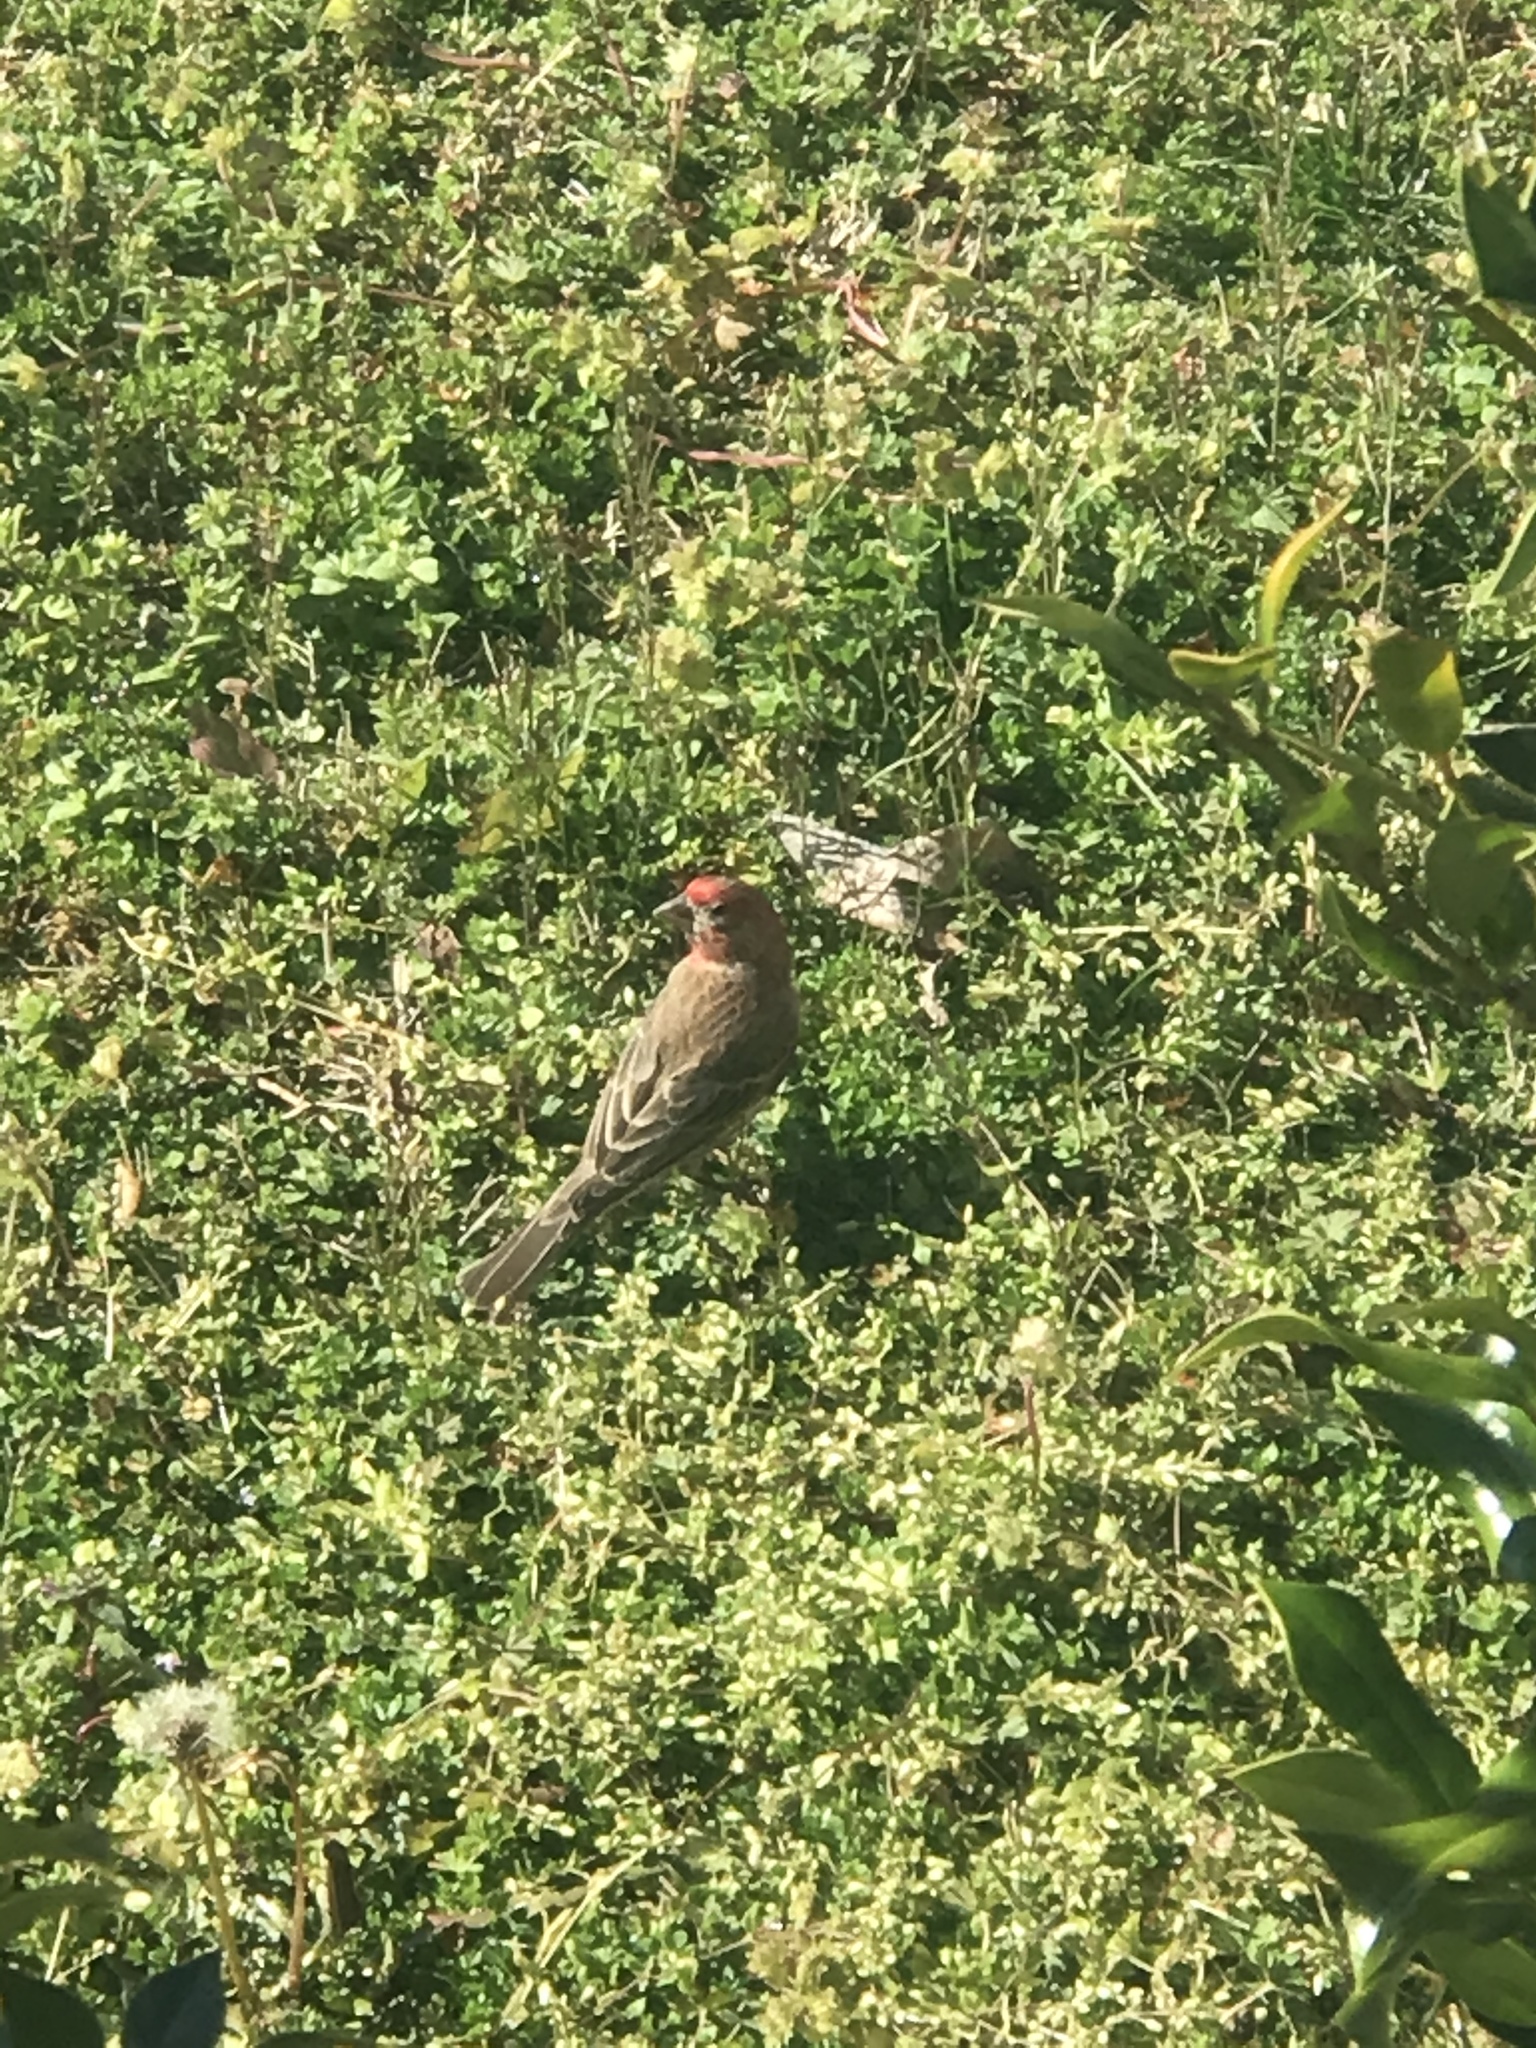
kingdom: Animalia
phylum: Chordata
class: Aves
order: Passeriformes
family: Fringillidae
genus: Haemorhous
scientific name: Haemorhous mexicanus
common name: House finch
